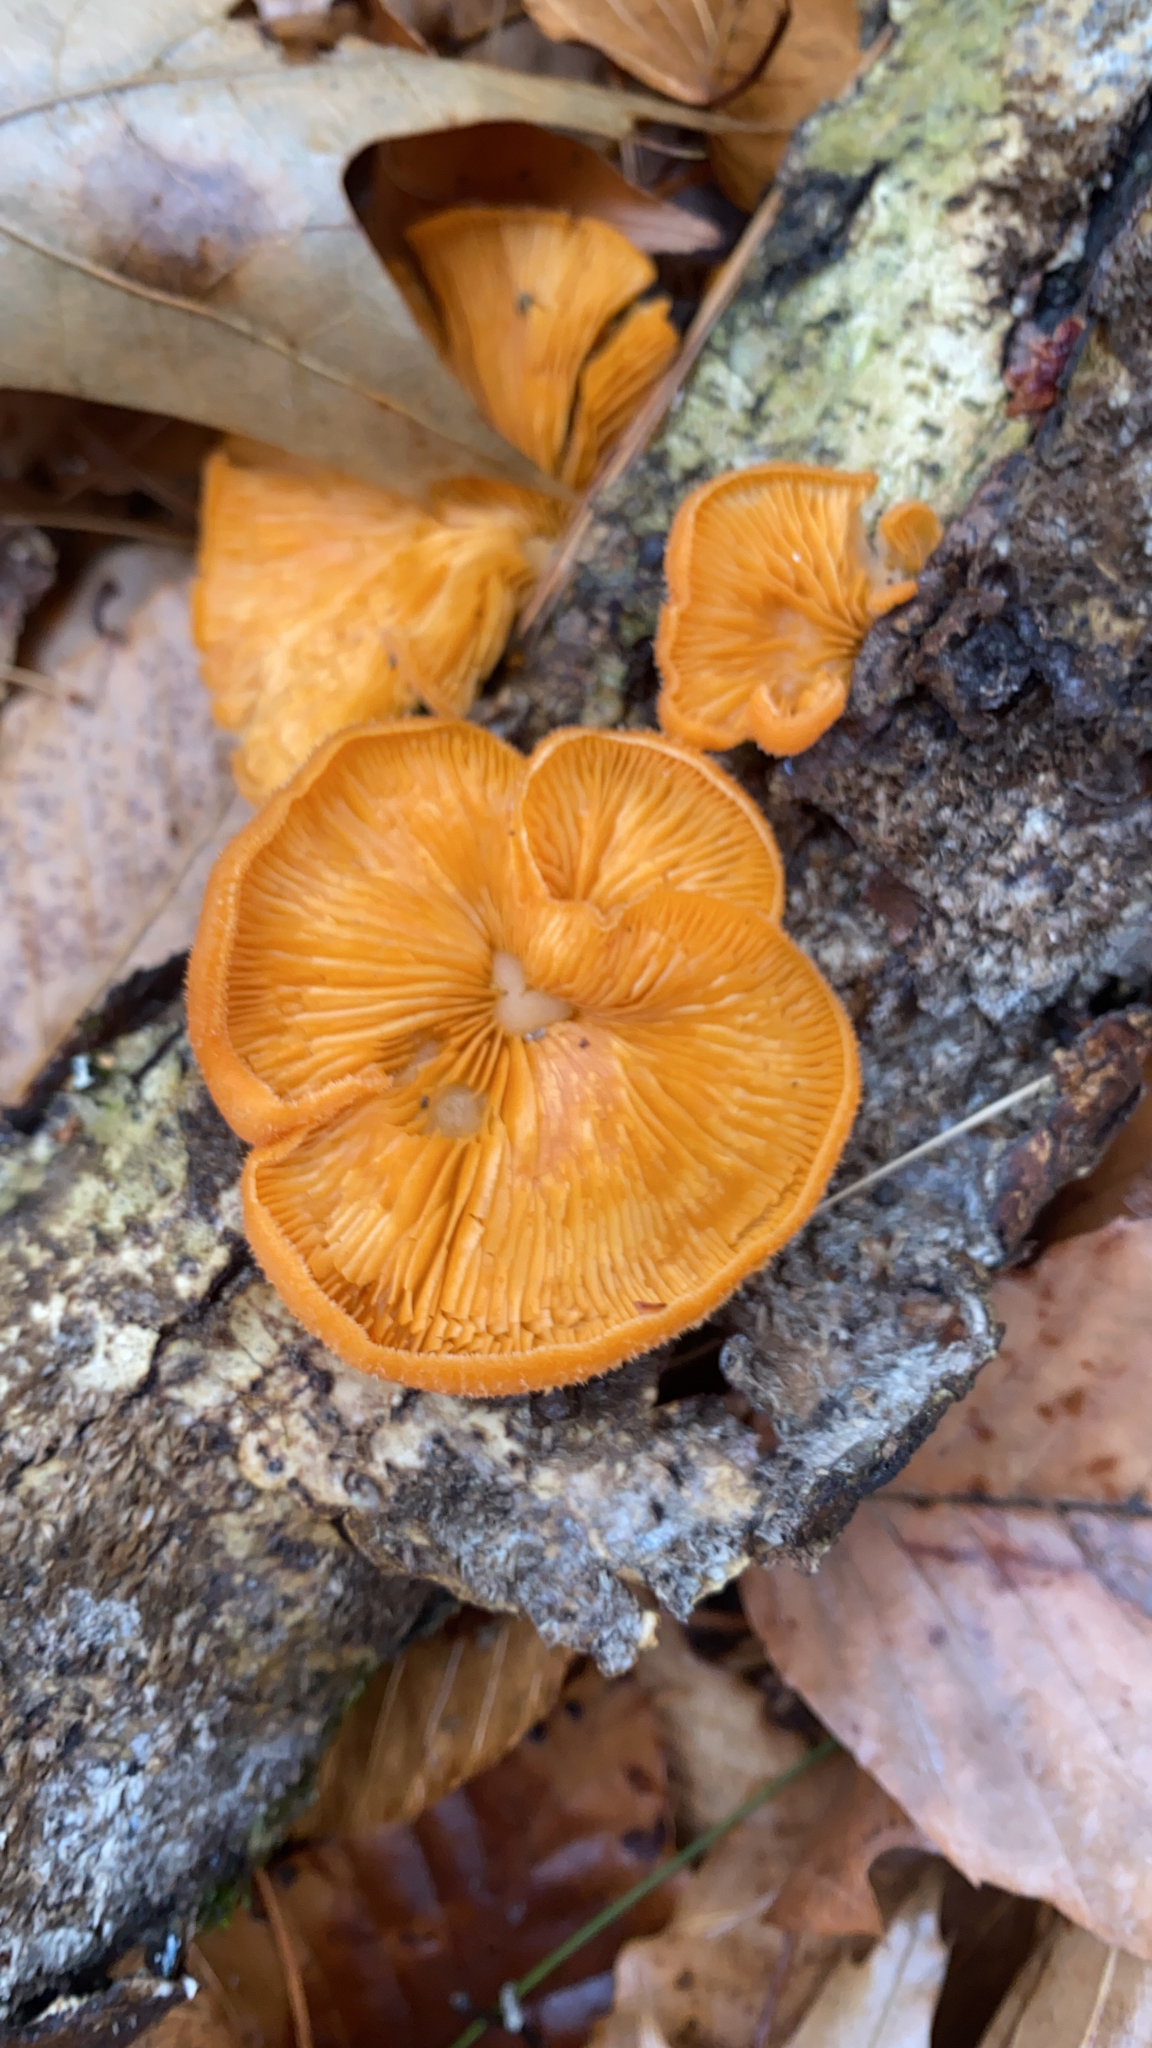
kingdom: Fungi
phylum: Basidiomycota
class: Agaricomycetes
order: Agaricales
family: Phyllotopsidaceae
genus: Phyllotopsis
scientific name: Phyllotopsis nidulans
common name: Orange mock oyster
